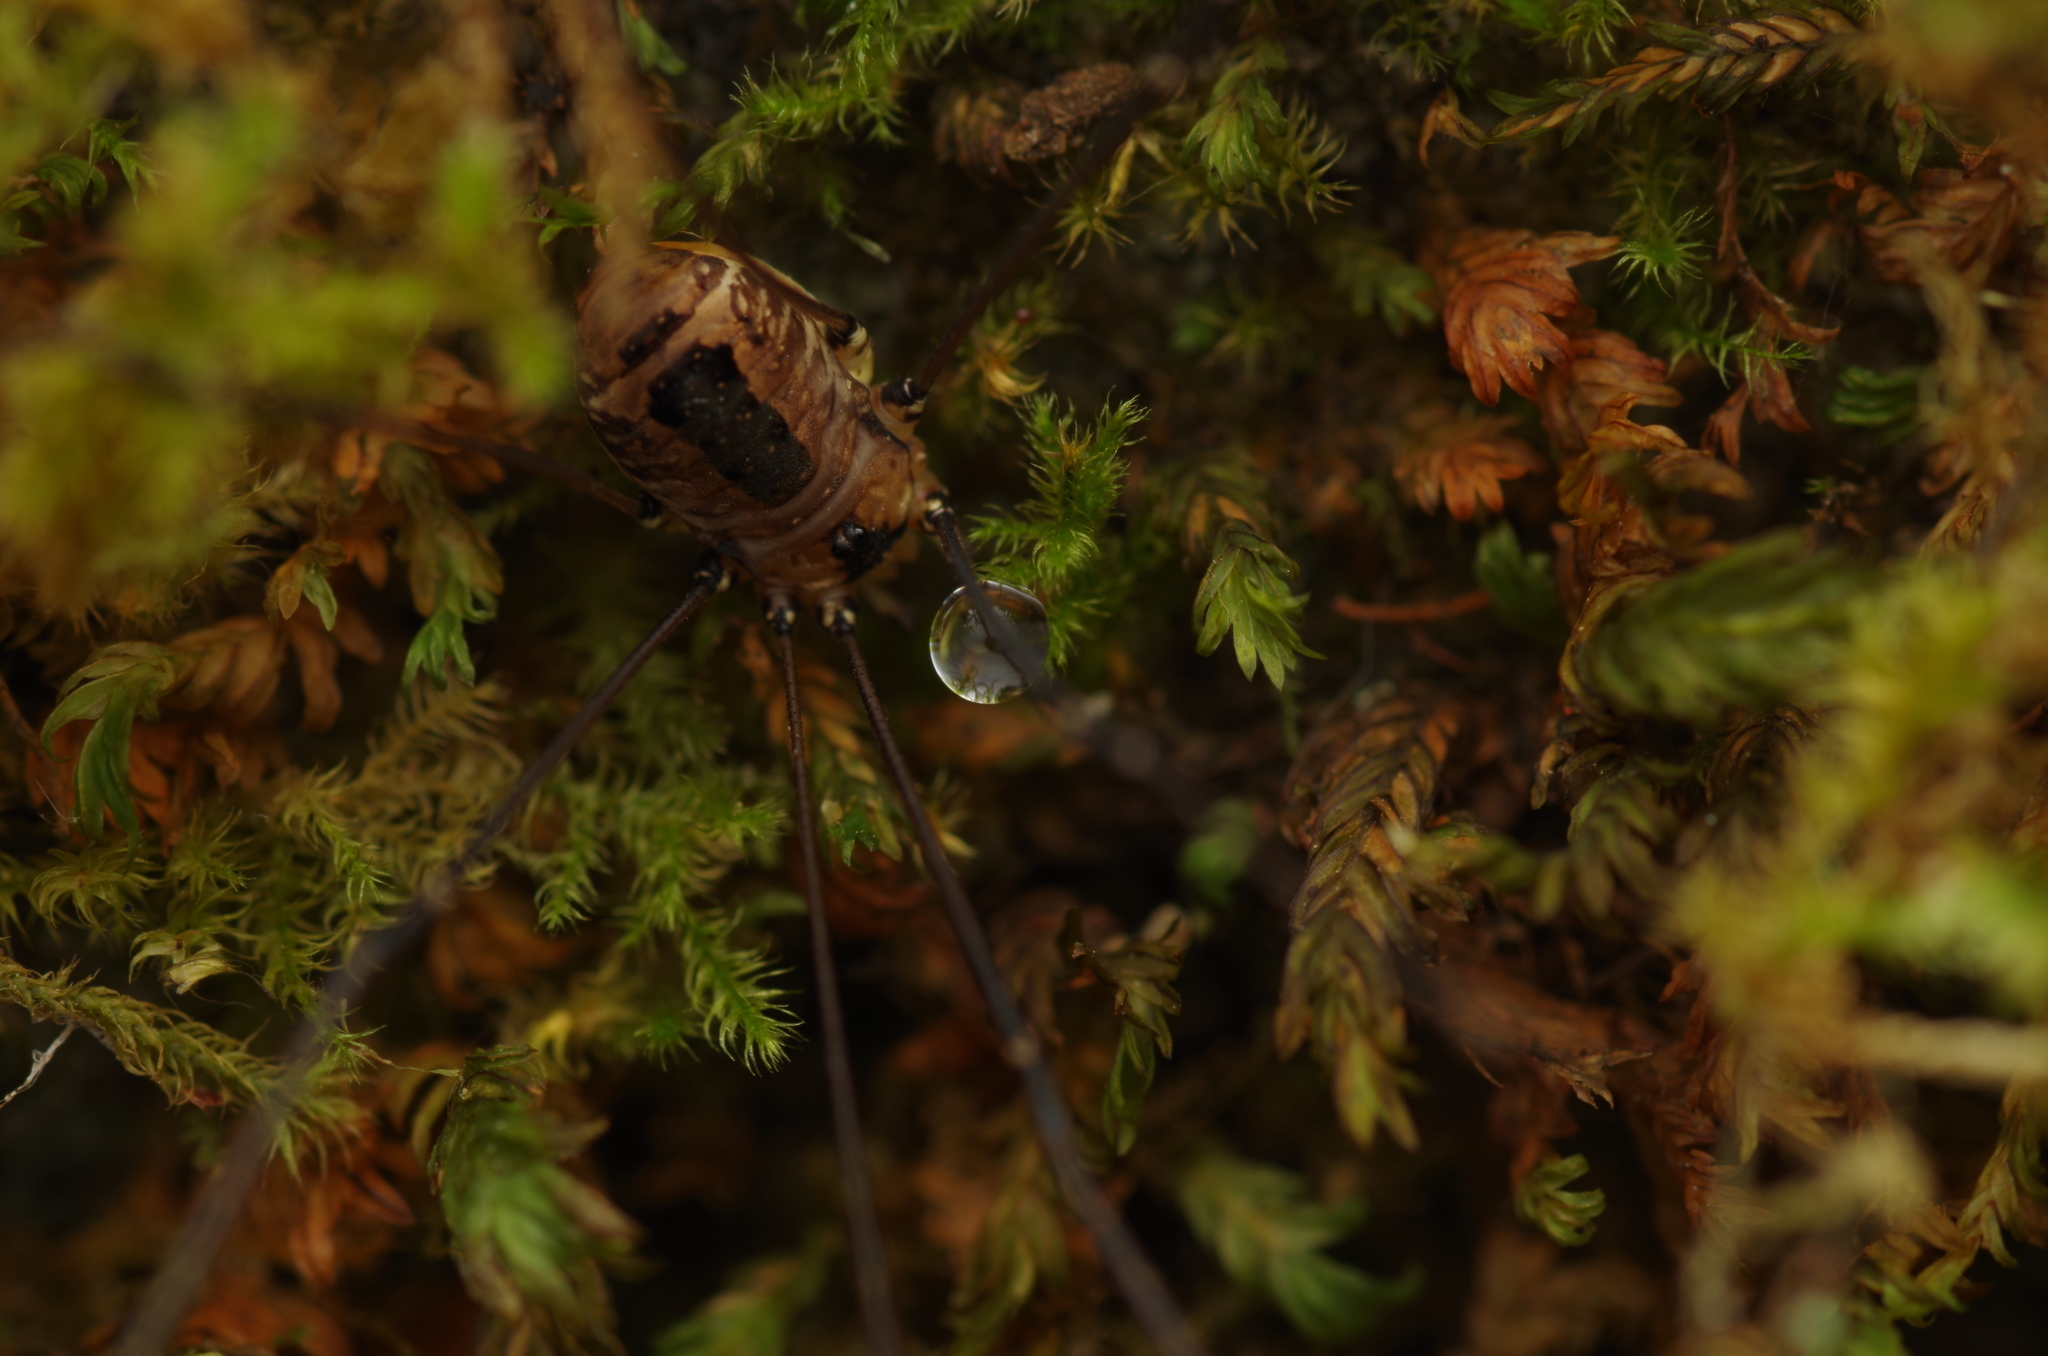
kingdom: Animalia
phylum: Arthropoda
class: Arachnida
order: Opiliones
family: Sclerosomatidae
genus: Leiobunum
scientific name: Leiobunum rotundum
